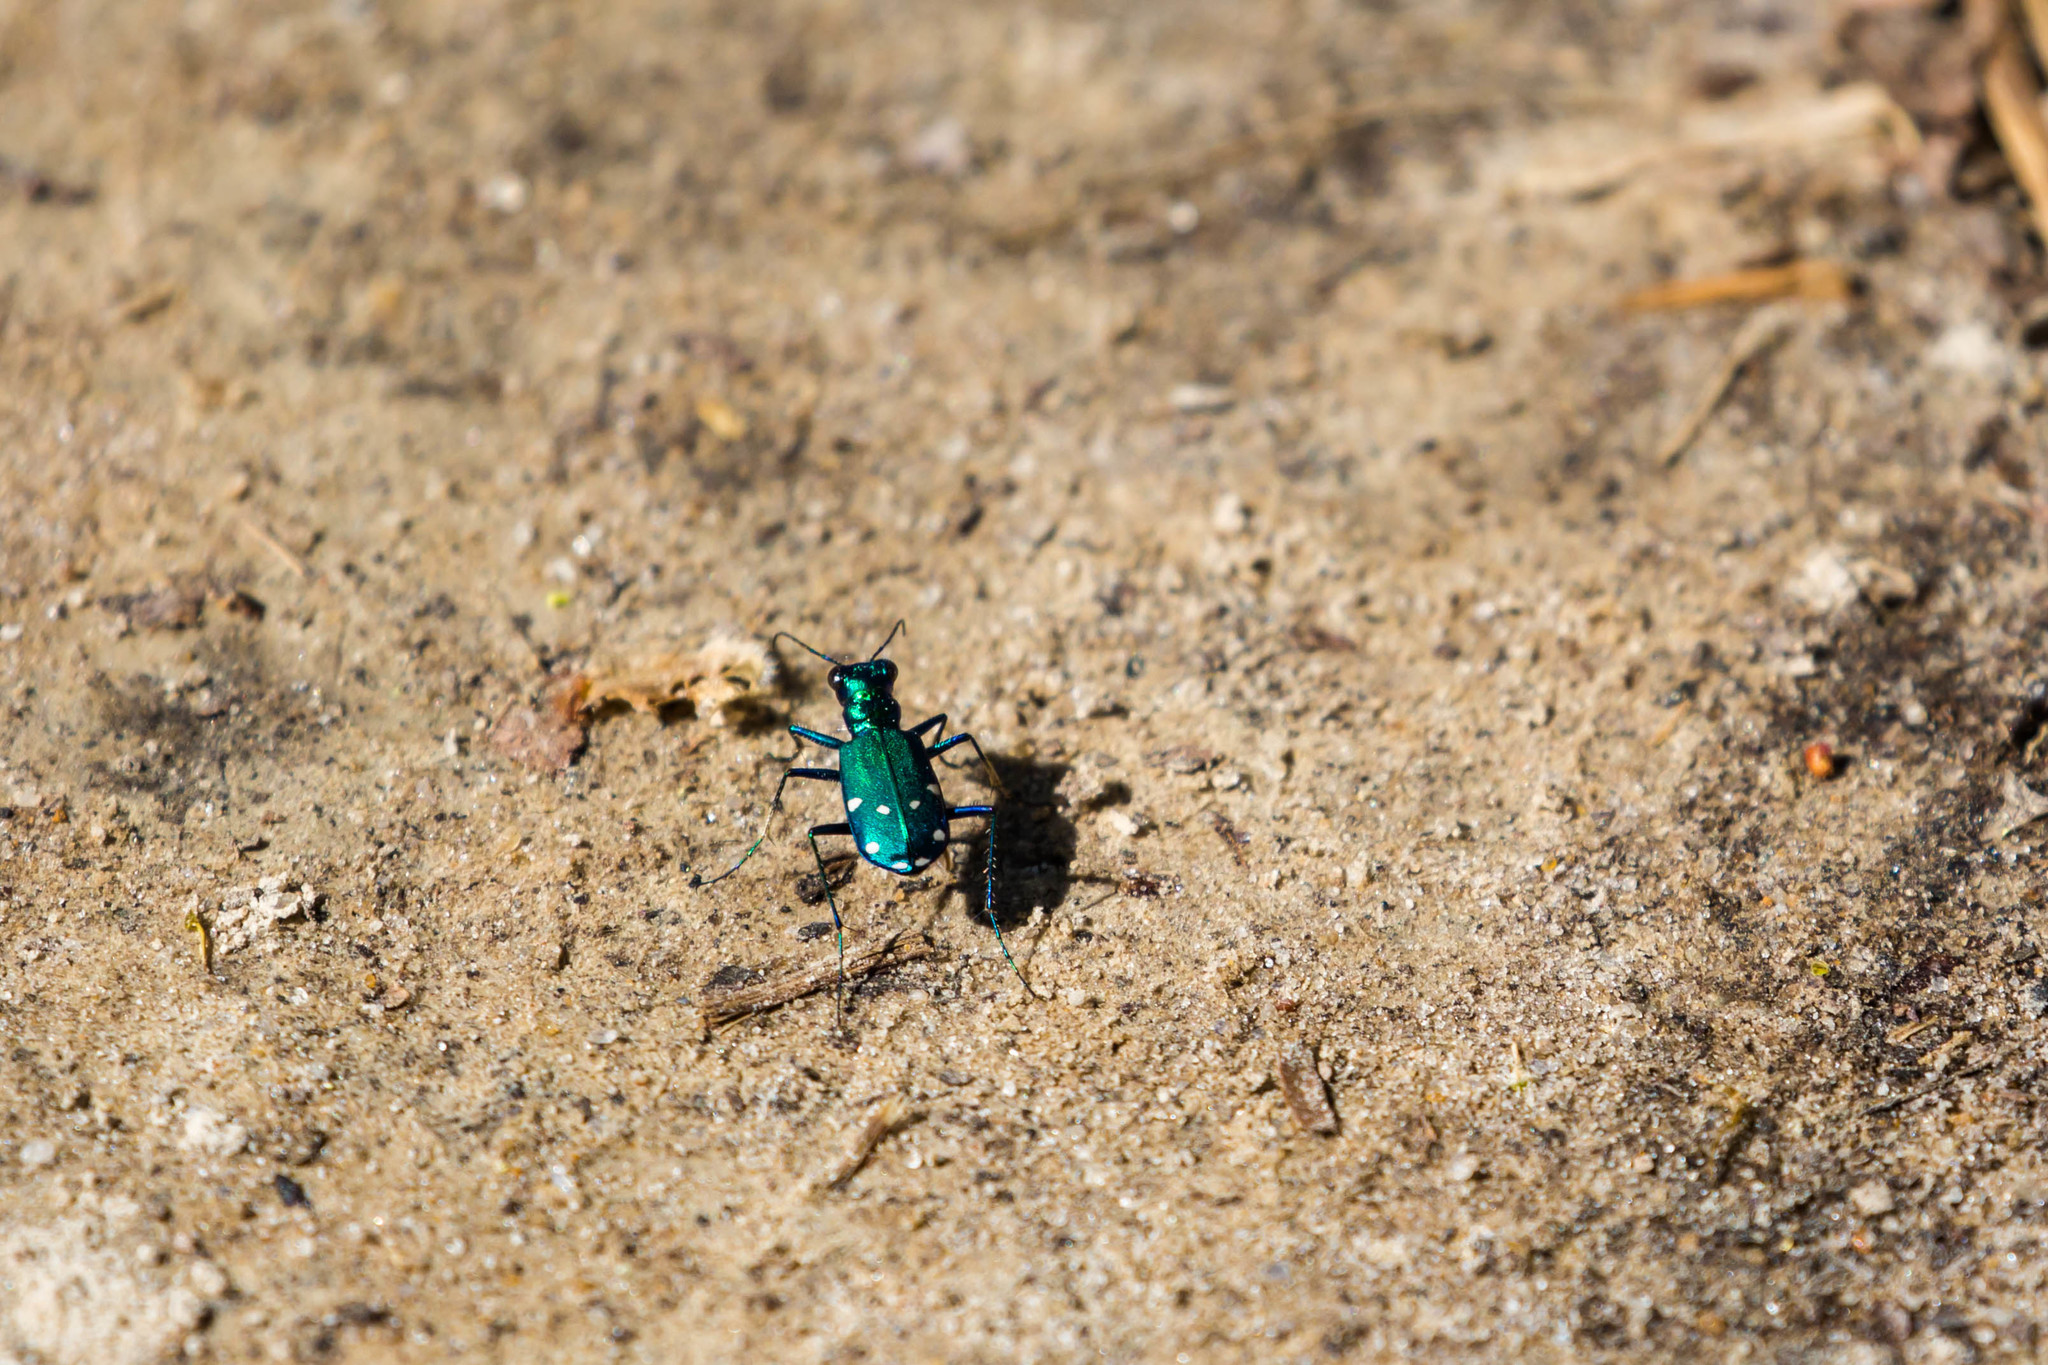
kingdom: Animalia
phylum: Arthropoda
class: Insecta
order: Coleoptera
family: Carabidae
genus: Cicindela
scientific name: Cicindela sexguttata
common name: Six-spotted tiger beetle
